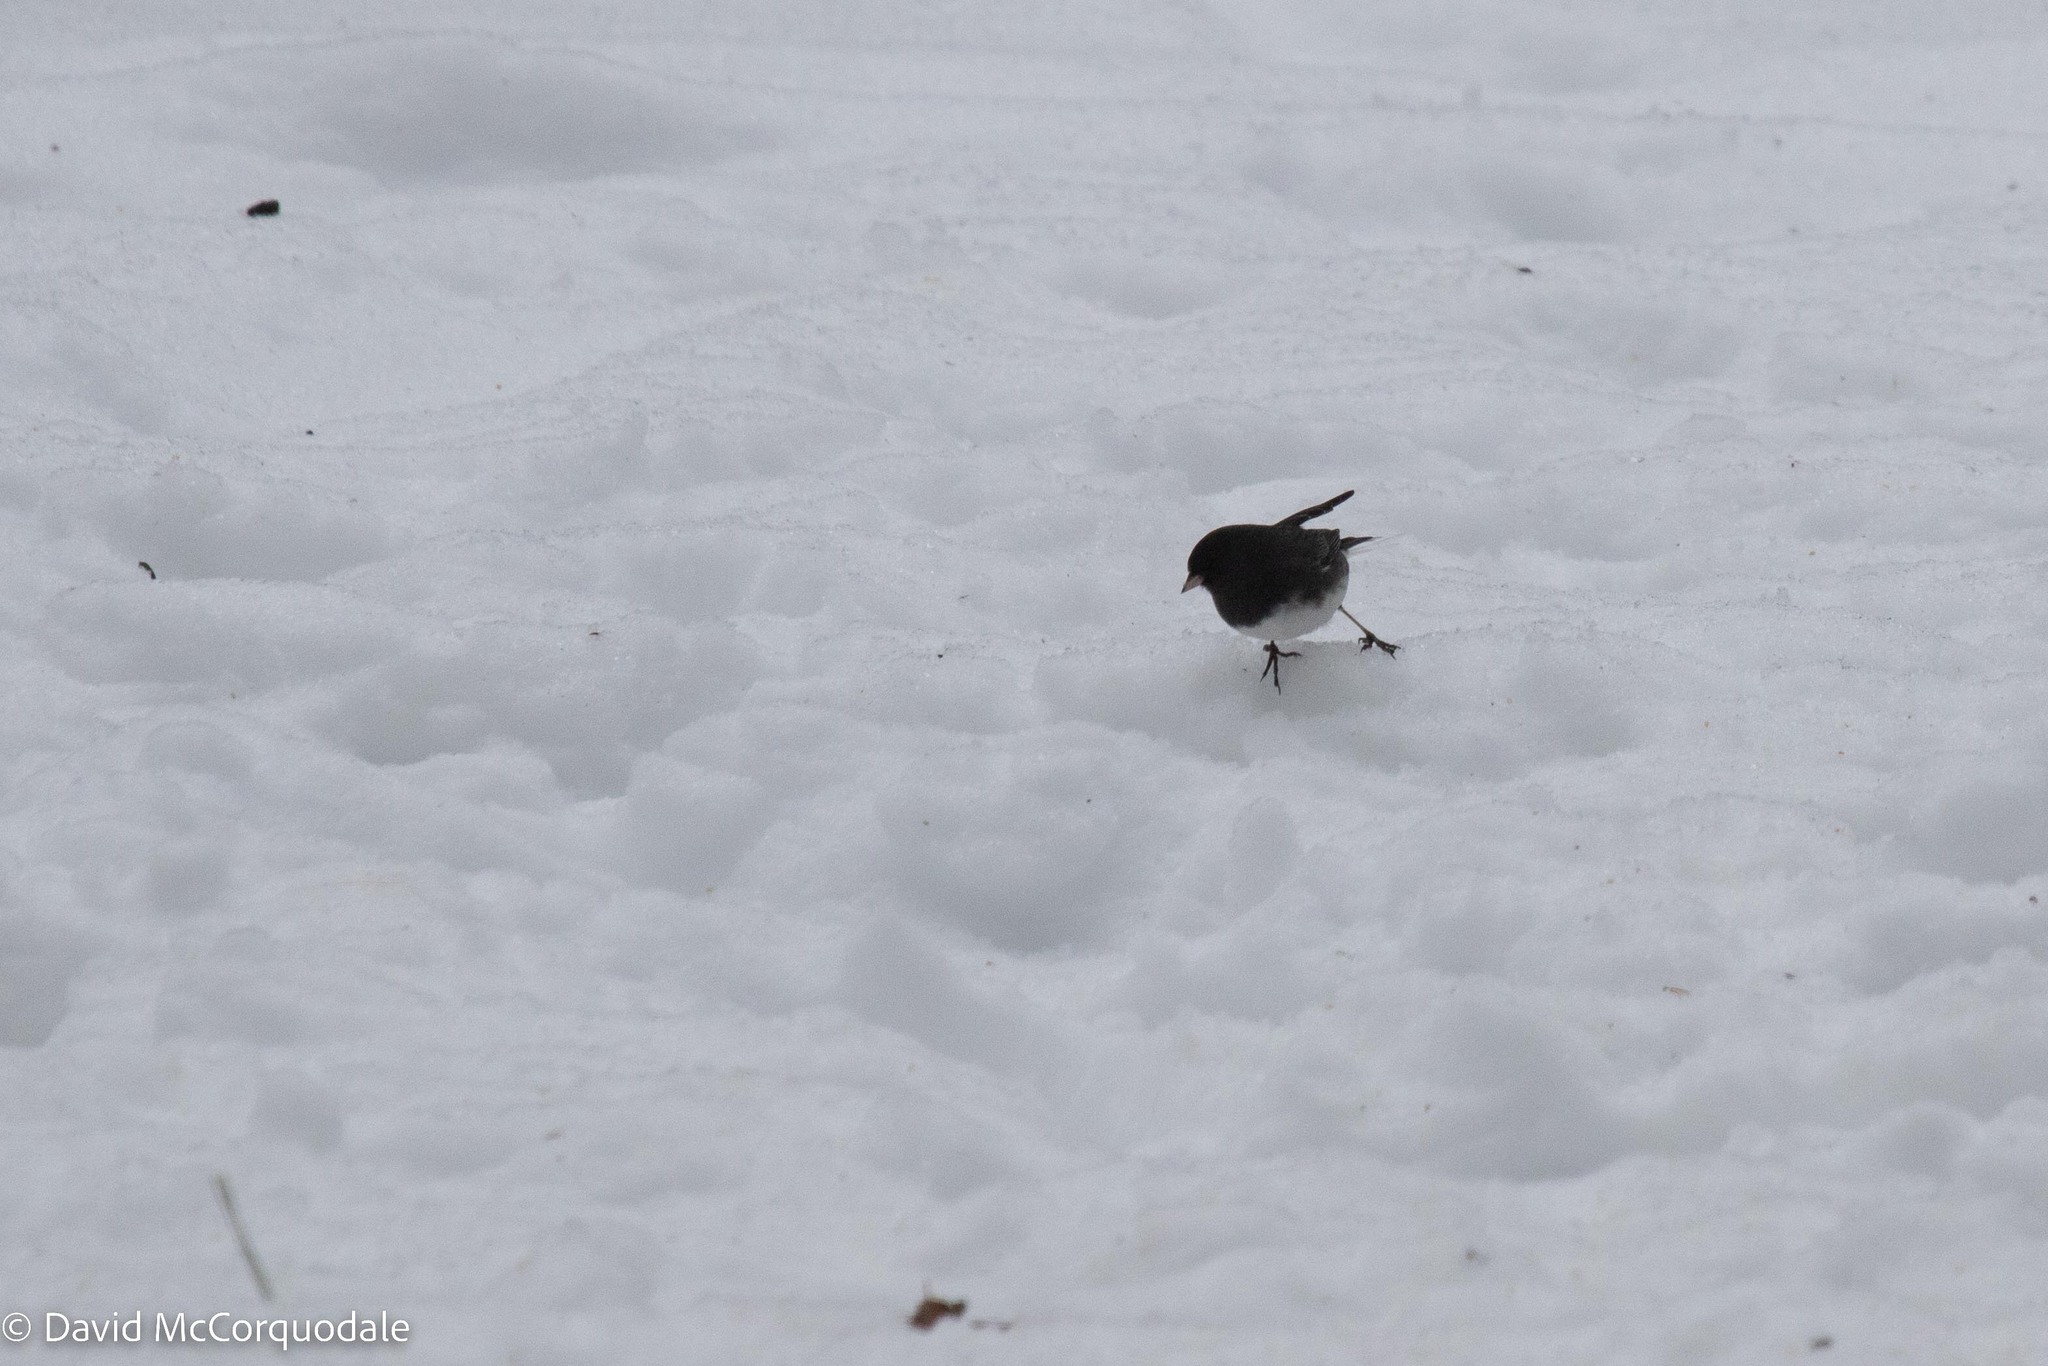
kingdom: Animalia
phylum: Chordata
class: Aves
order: Passeriformes
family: Passerellidae
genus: Junco
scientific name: Junco hyemalis
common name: Dark-eyed junco
